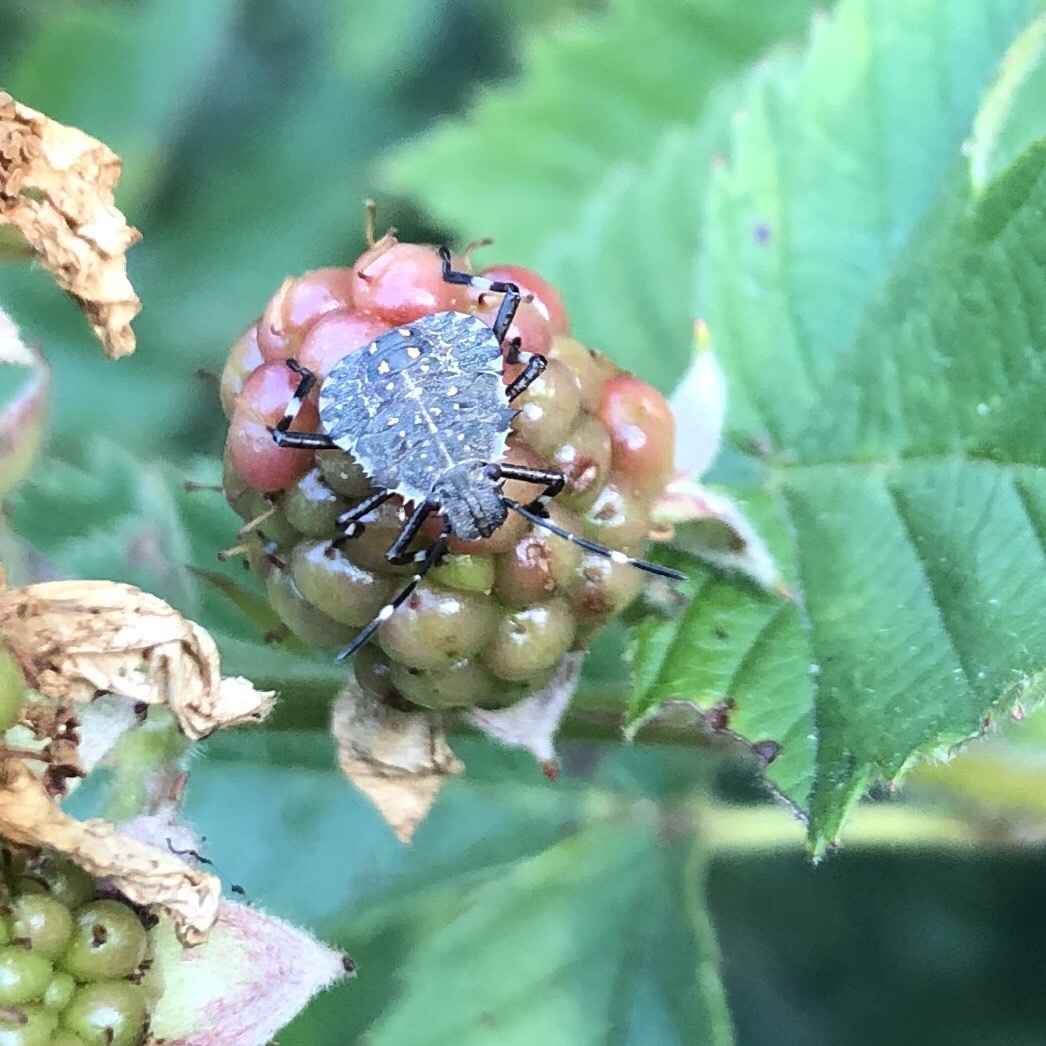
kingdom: Animalia
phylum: Arthropoda
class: Insecta
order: Hemiptera
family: Pentatomidae
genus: Halyomorpha
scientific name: Halyomorpha halys
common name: Brown marmorated stink bug
